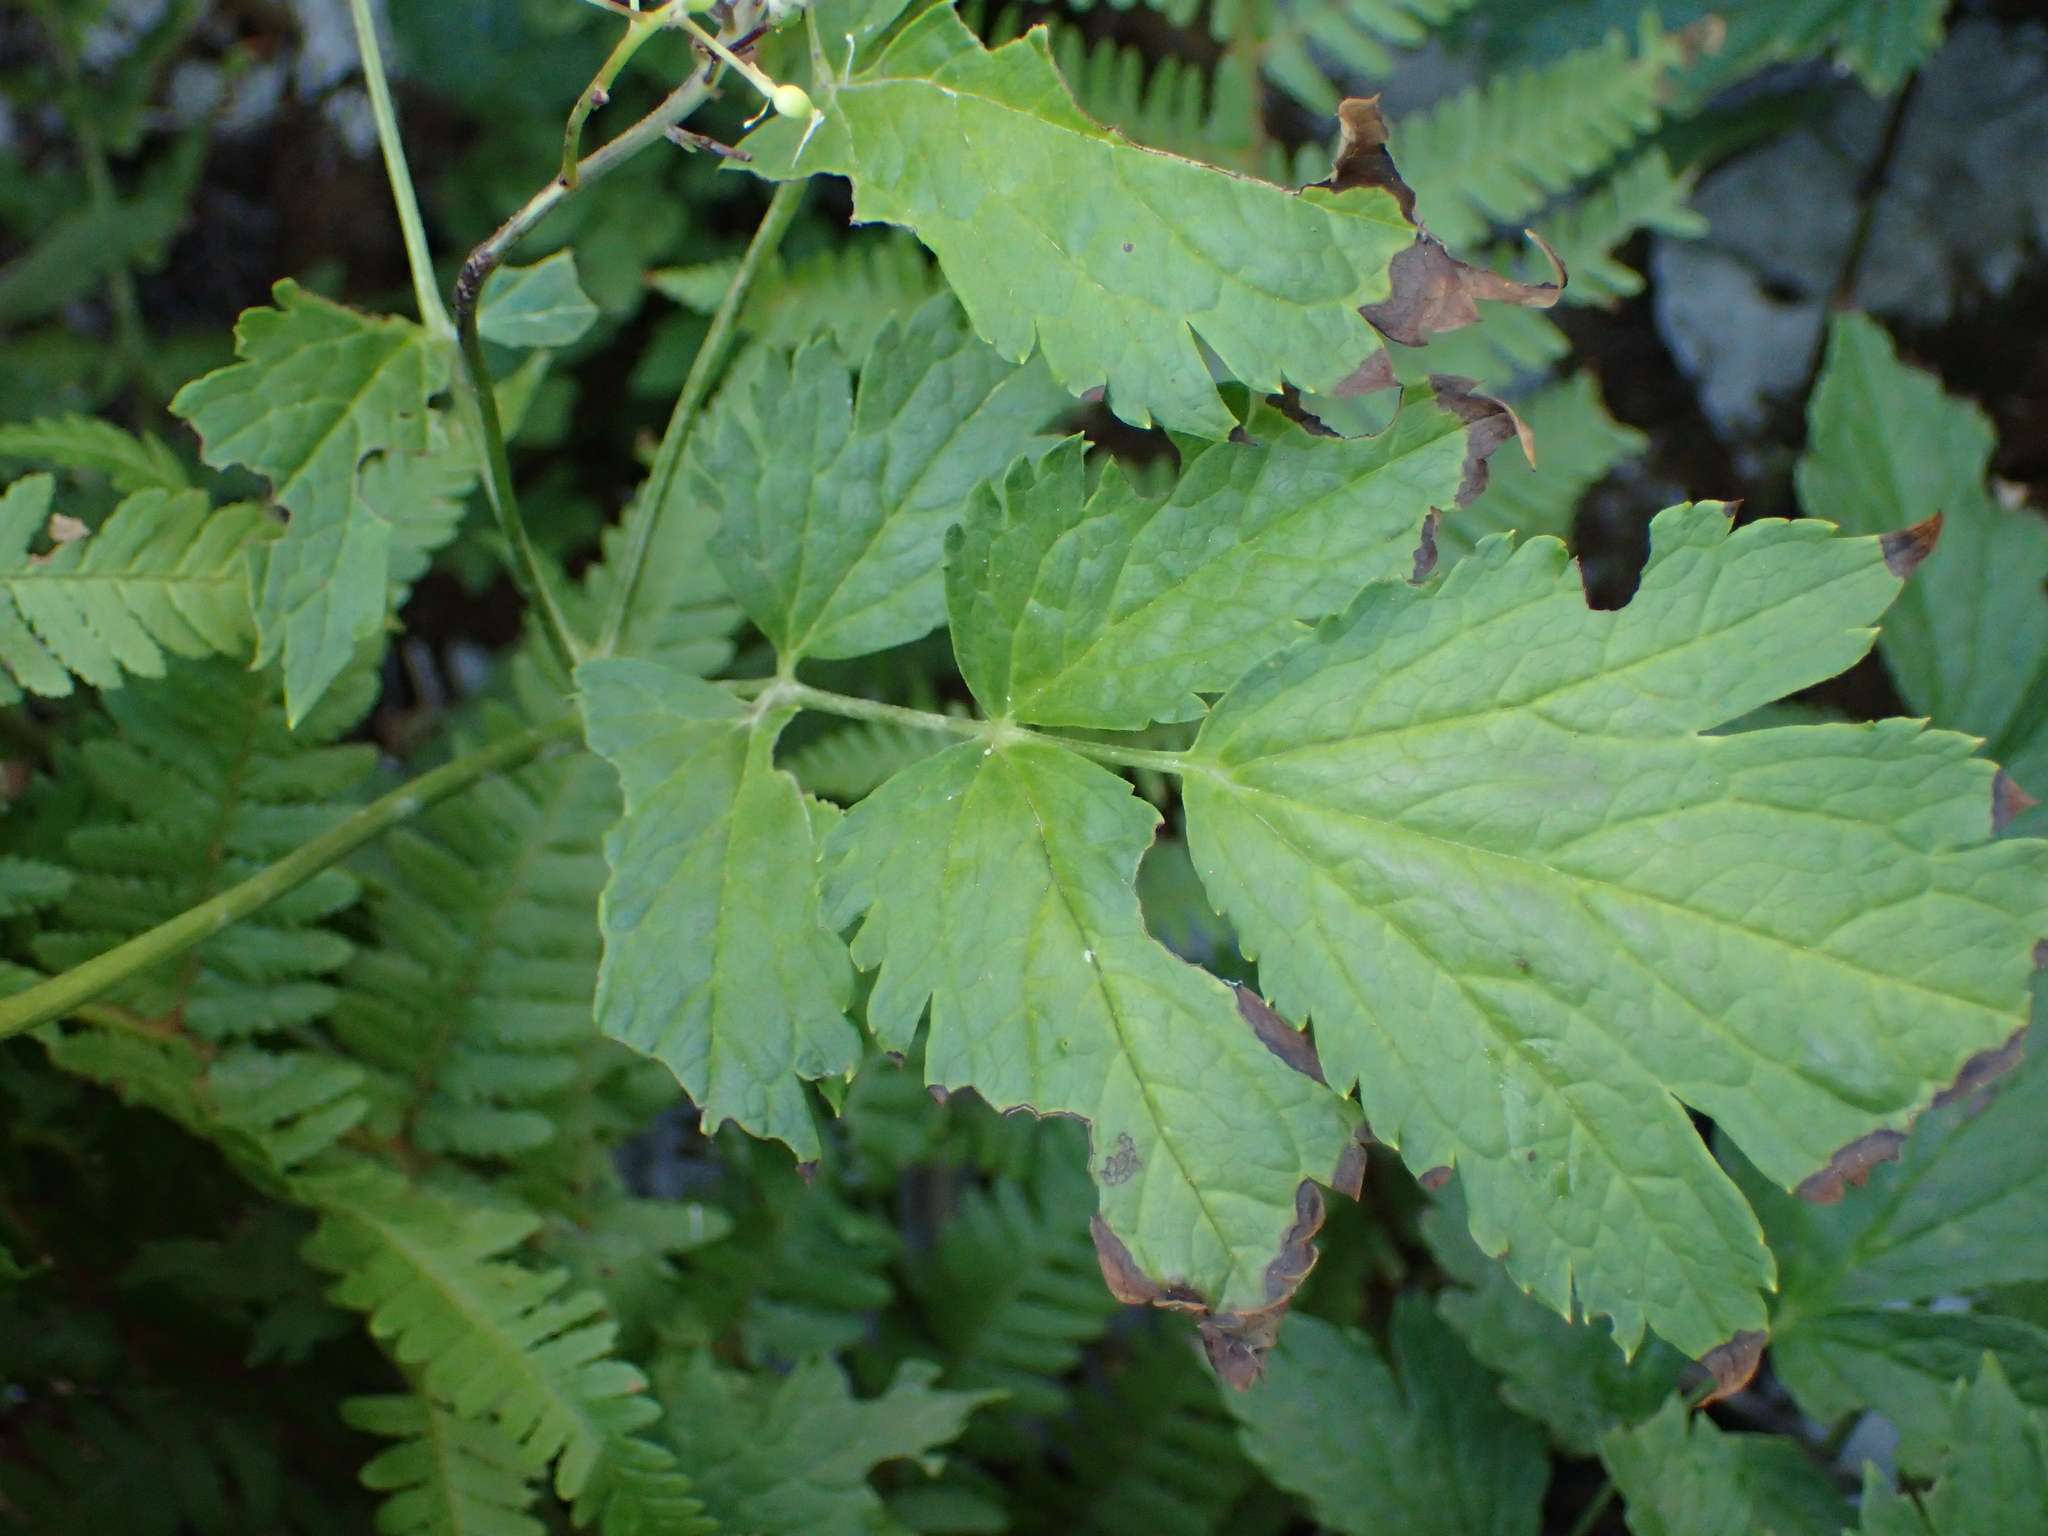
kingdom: Plantae
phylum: Tracheophyta
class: Magnoliopsida
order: Ranunculales
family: Ranunculaceae
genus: Actaea
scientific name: Actaea spicata
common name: Baneberry
